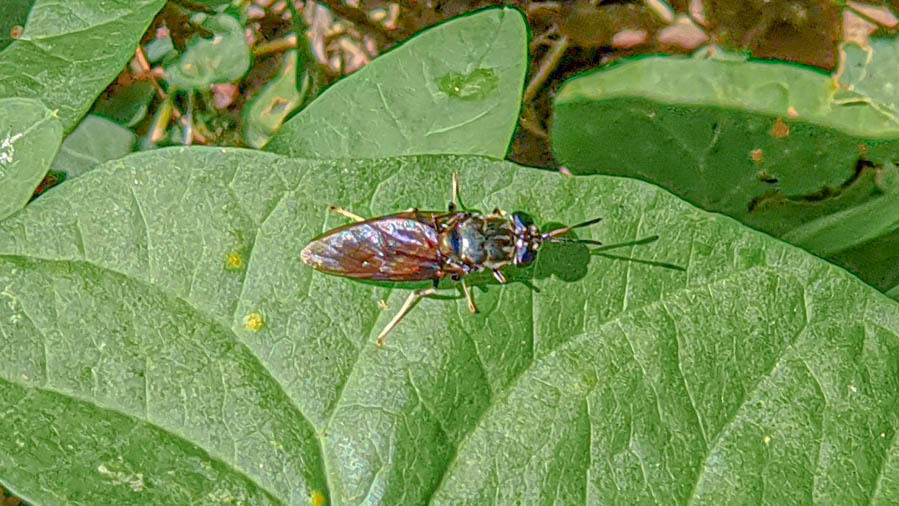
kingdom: Animalia
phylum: Arthropoda
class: Insecta
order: Diptera
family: Stratiomyidae
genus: Hermetia
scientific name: Hermetia illucens
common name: Black soldier fly
